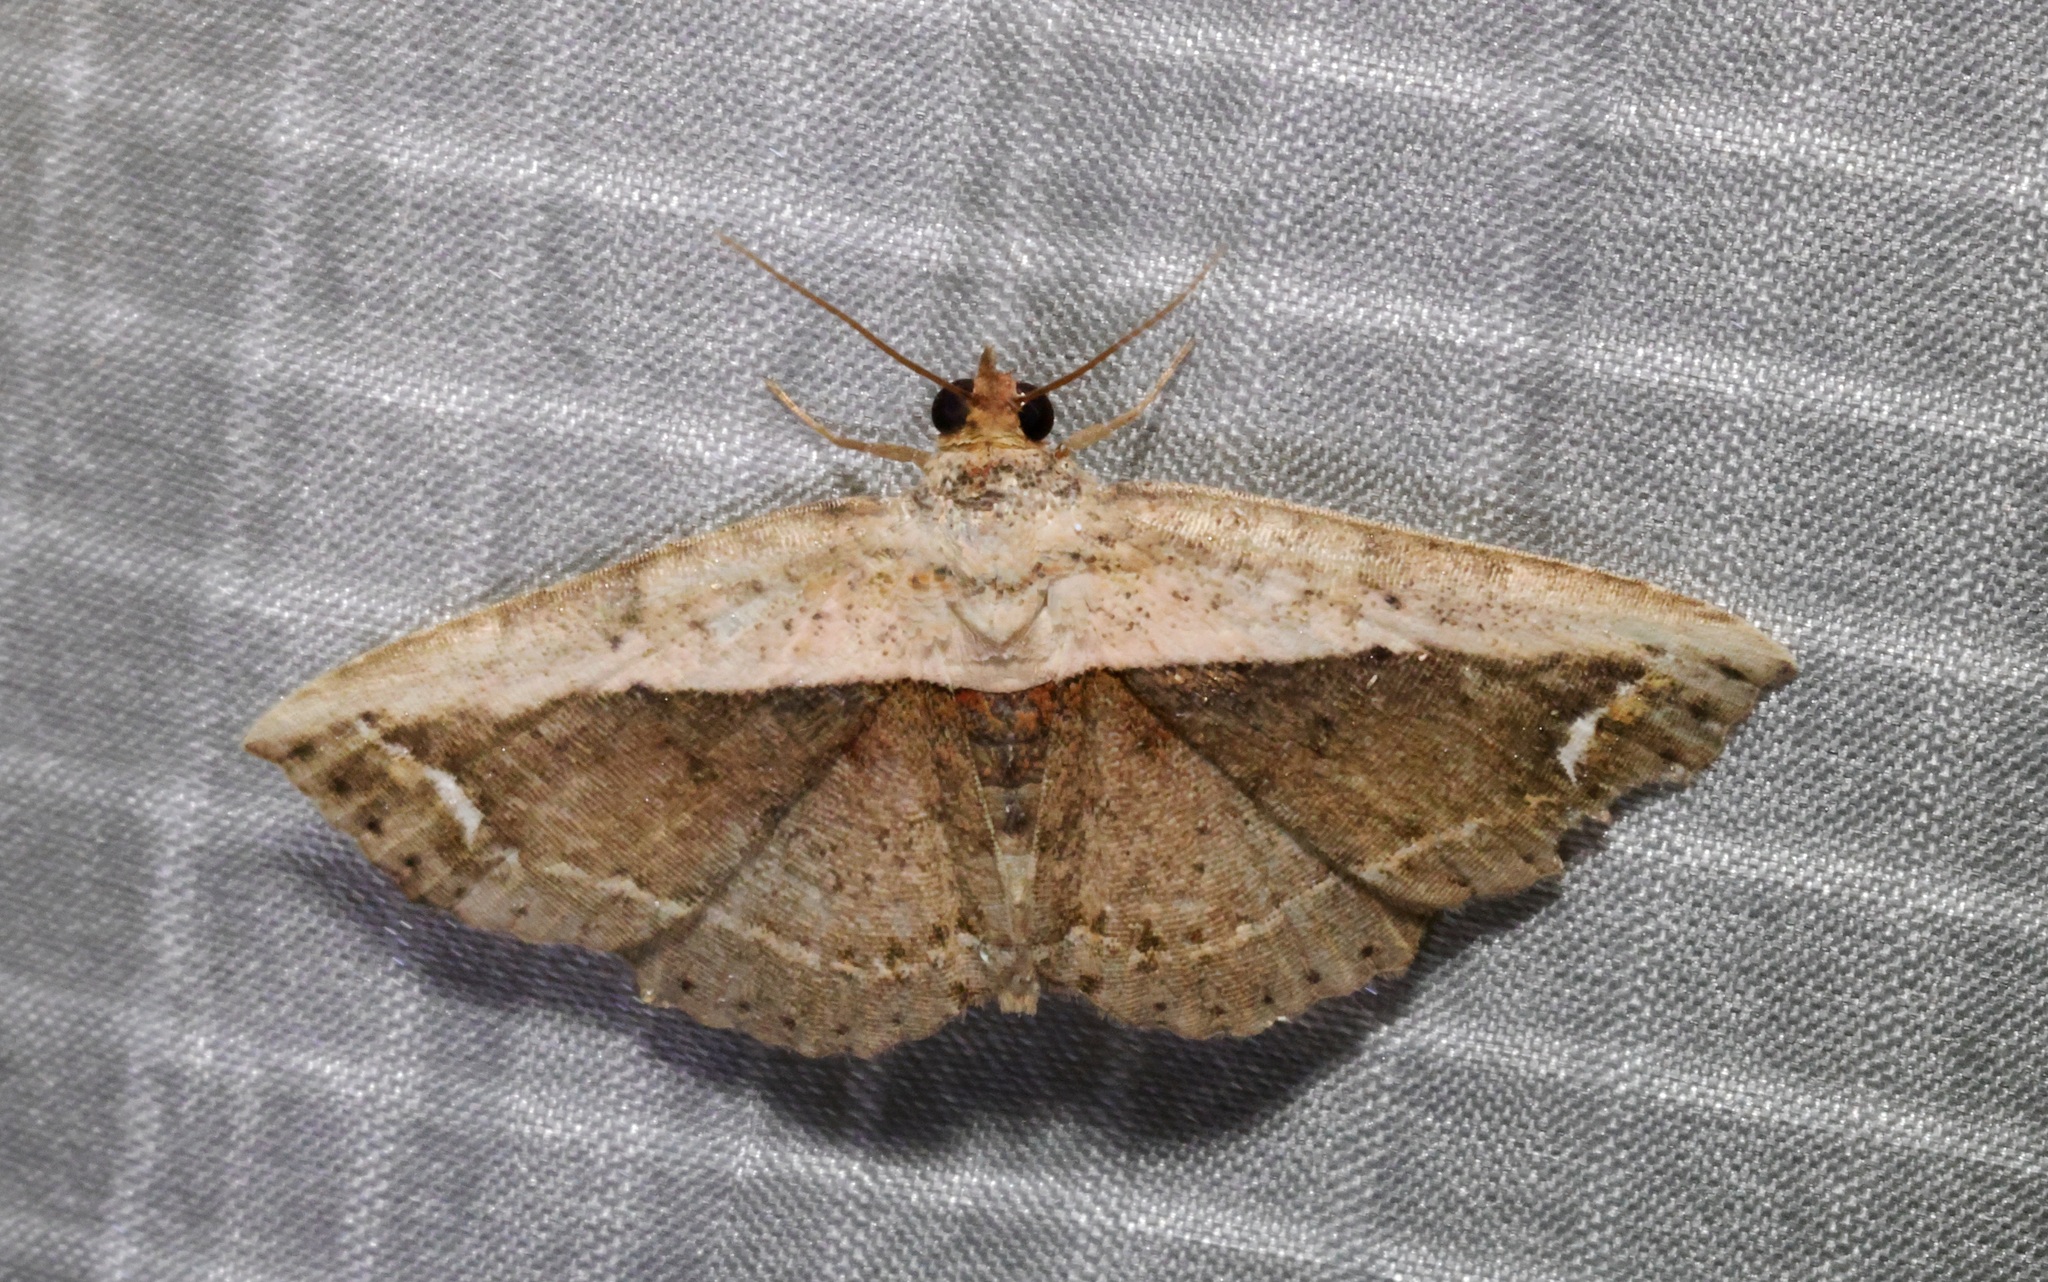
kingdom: Animalia
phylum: Arthropoda
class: Insecta
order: Lepidoptera
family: Noctuidae
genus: Eugnathia
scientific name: Eugnathia lunifera
